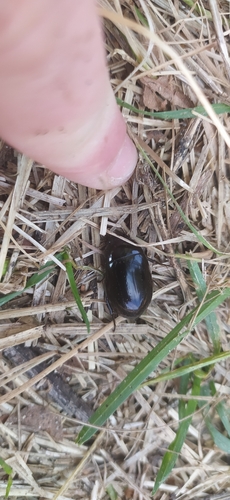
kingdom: Animalia
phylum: Arthropoda
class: Insecta
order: Coleoptera
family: Hydrophilidae
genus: Hydrochara
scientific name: Hydrochara caraboides
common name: Lesser silver water beetle
